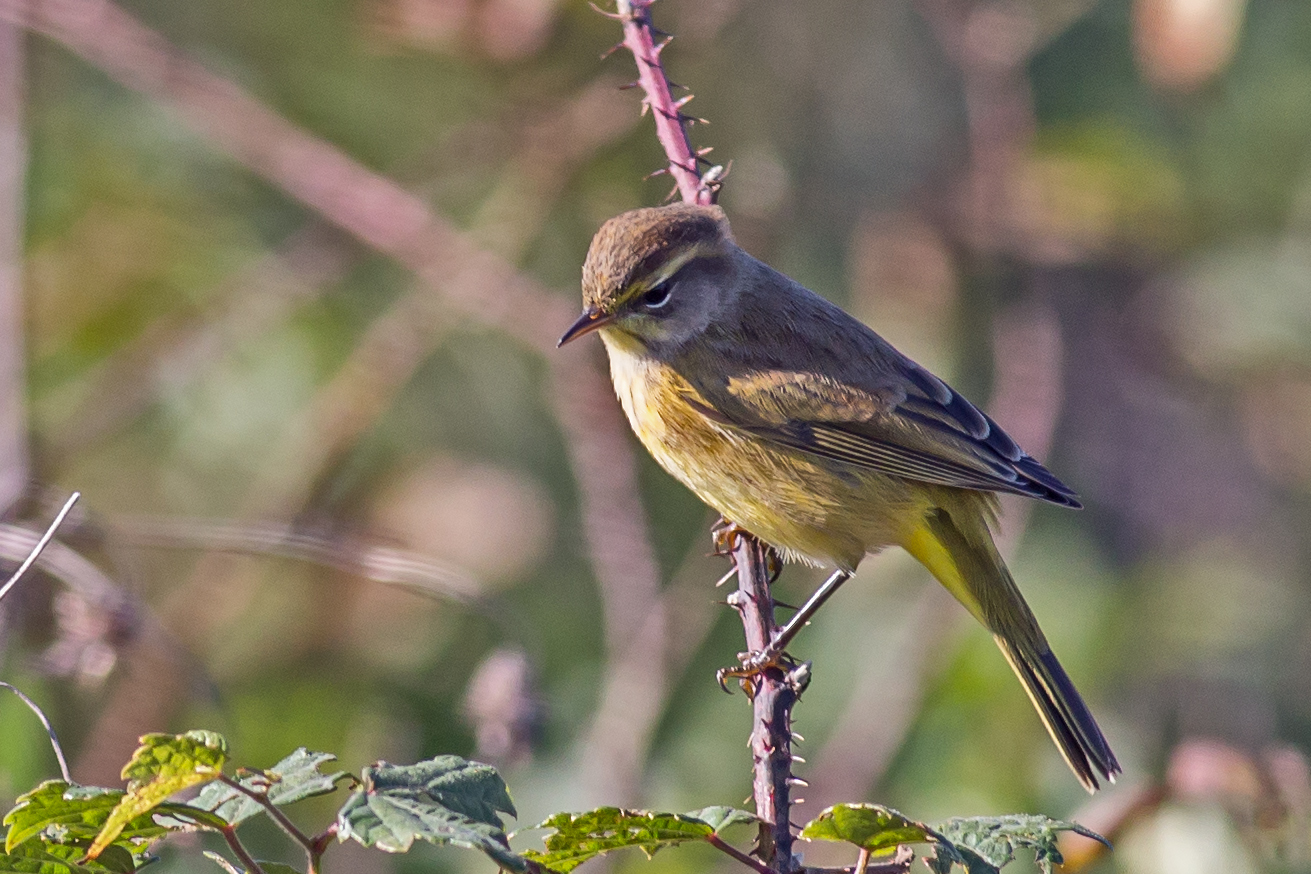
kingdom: Animalia
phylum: Chordata
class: Aves
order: Passeriformes
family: Parulidae
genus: Setophaga
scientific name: Setophaga palmarum
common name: Palm warbler
